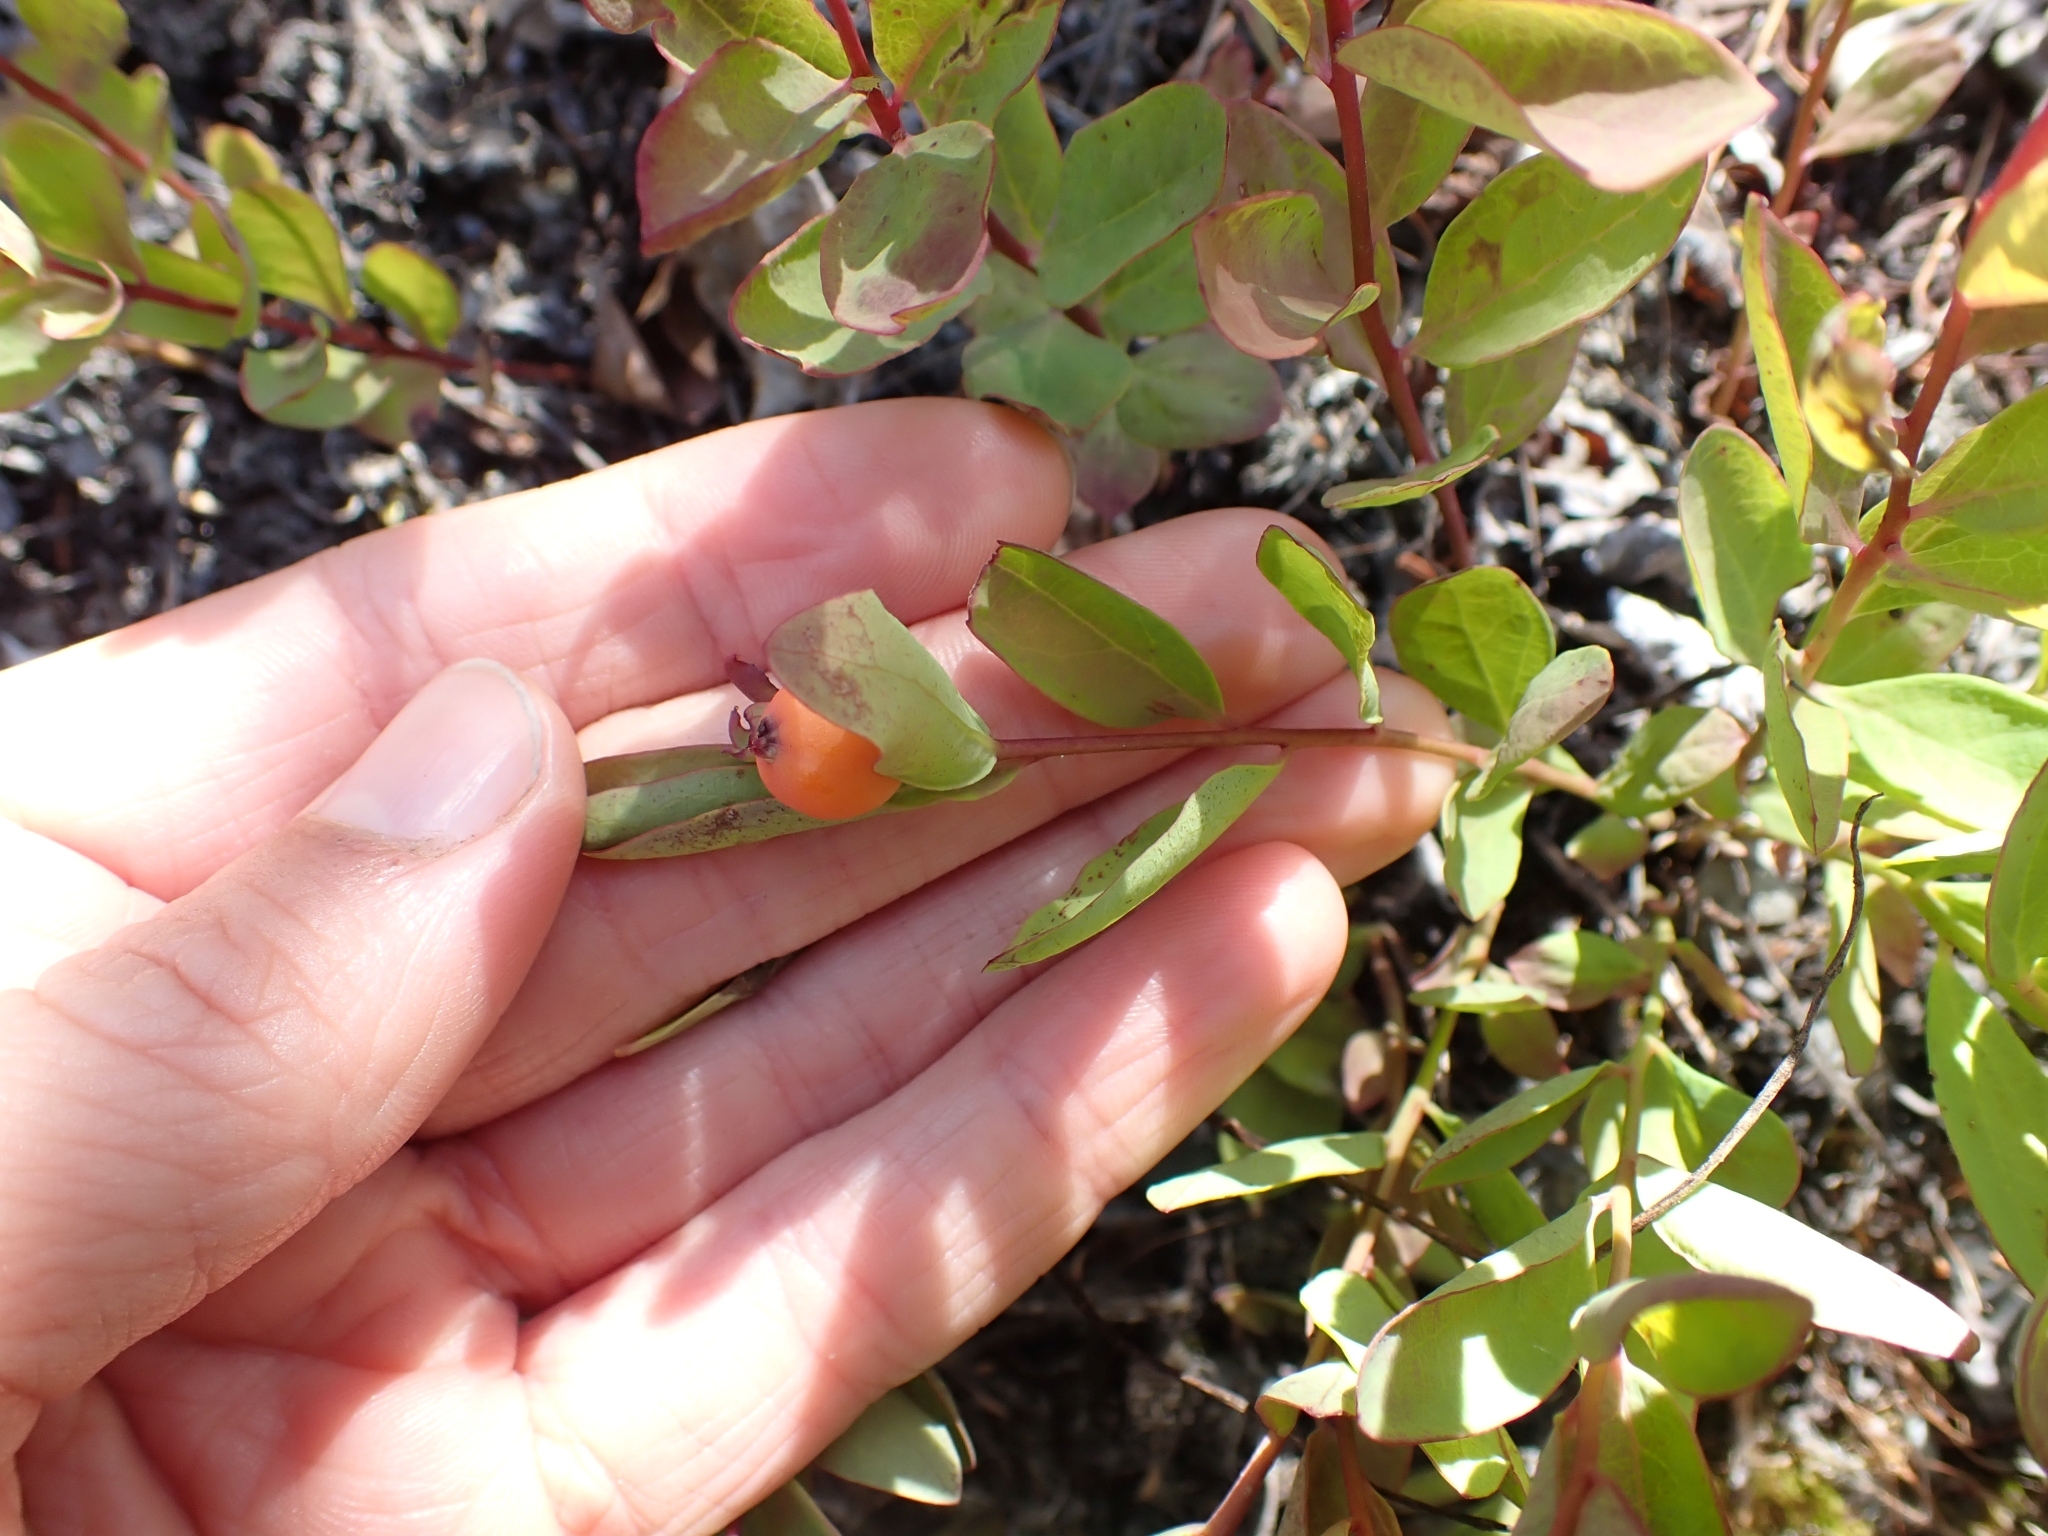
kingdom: Plantae
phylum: Tracheophyta
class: Magnoliopsida
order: Santalales
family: Comandraceae
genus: Geocaulon
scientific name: Geocaulon lividum
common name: Earthberry
